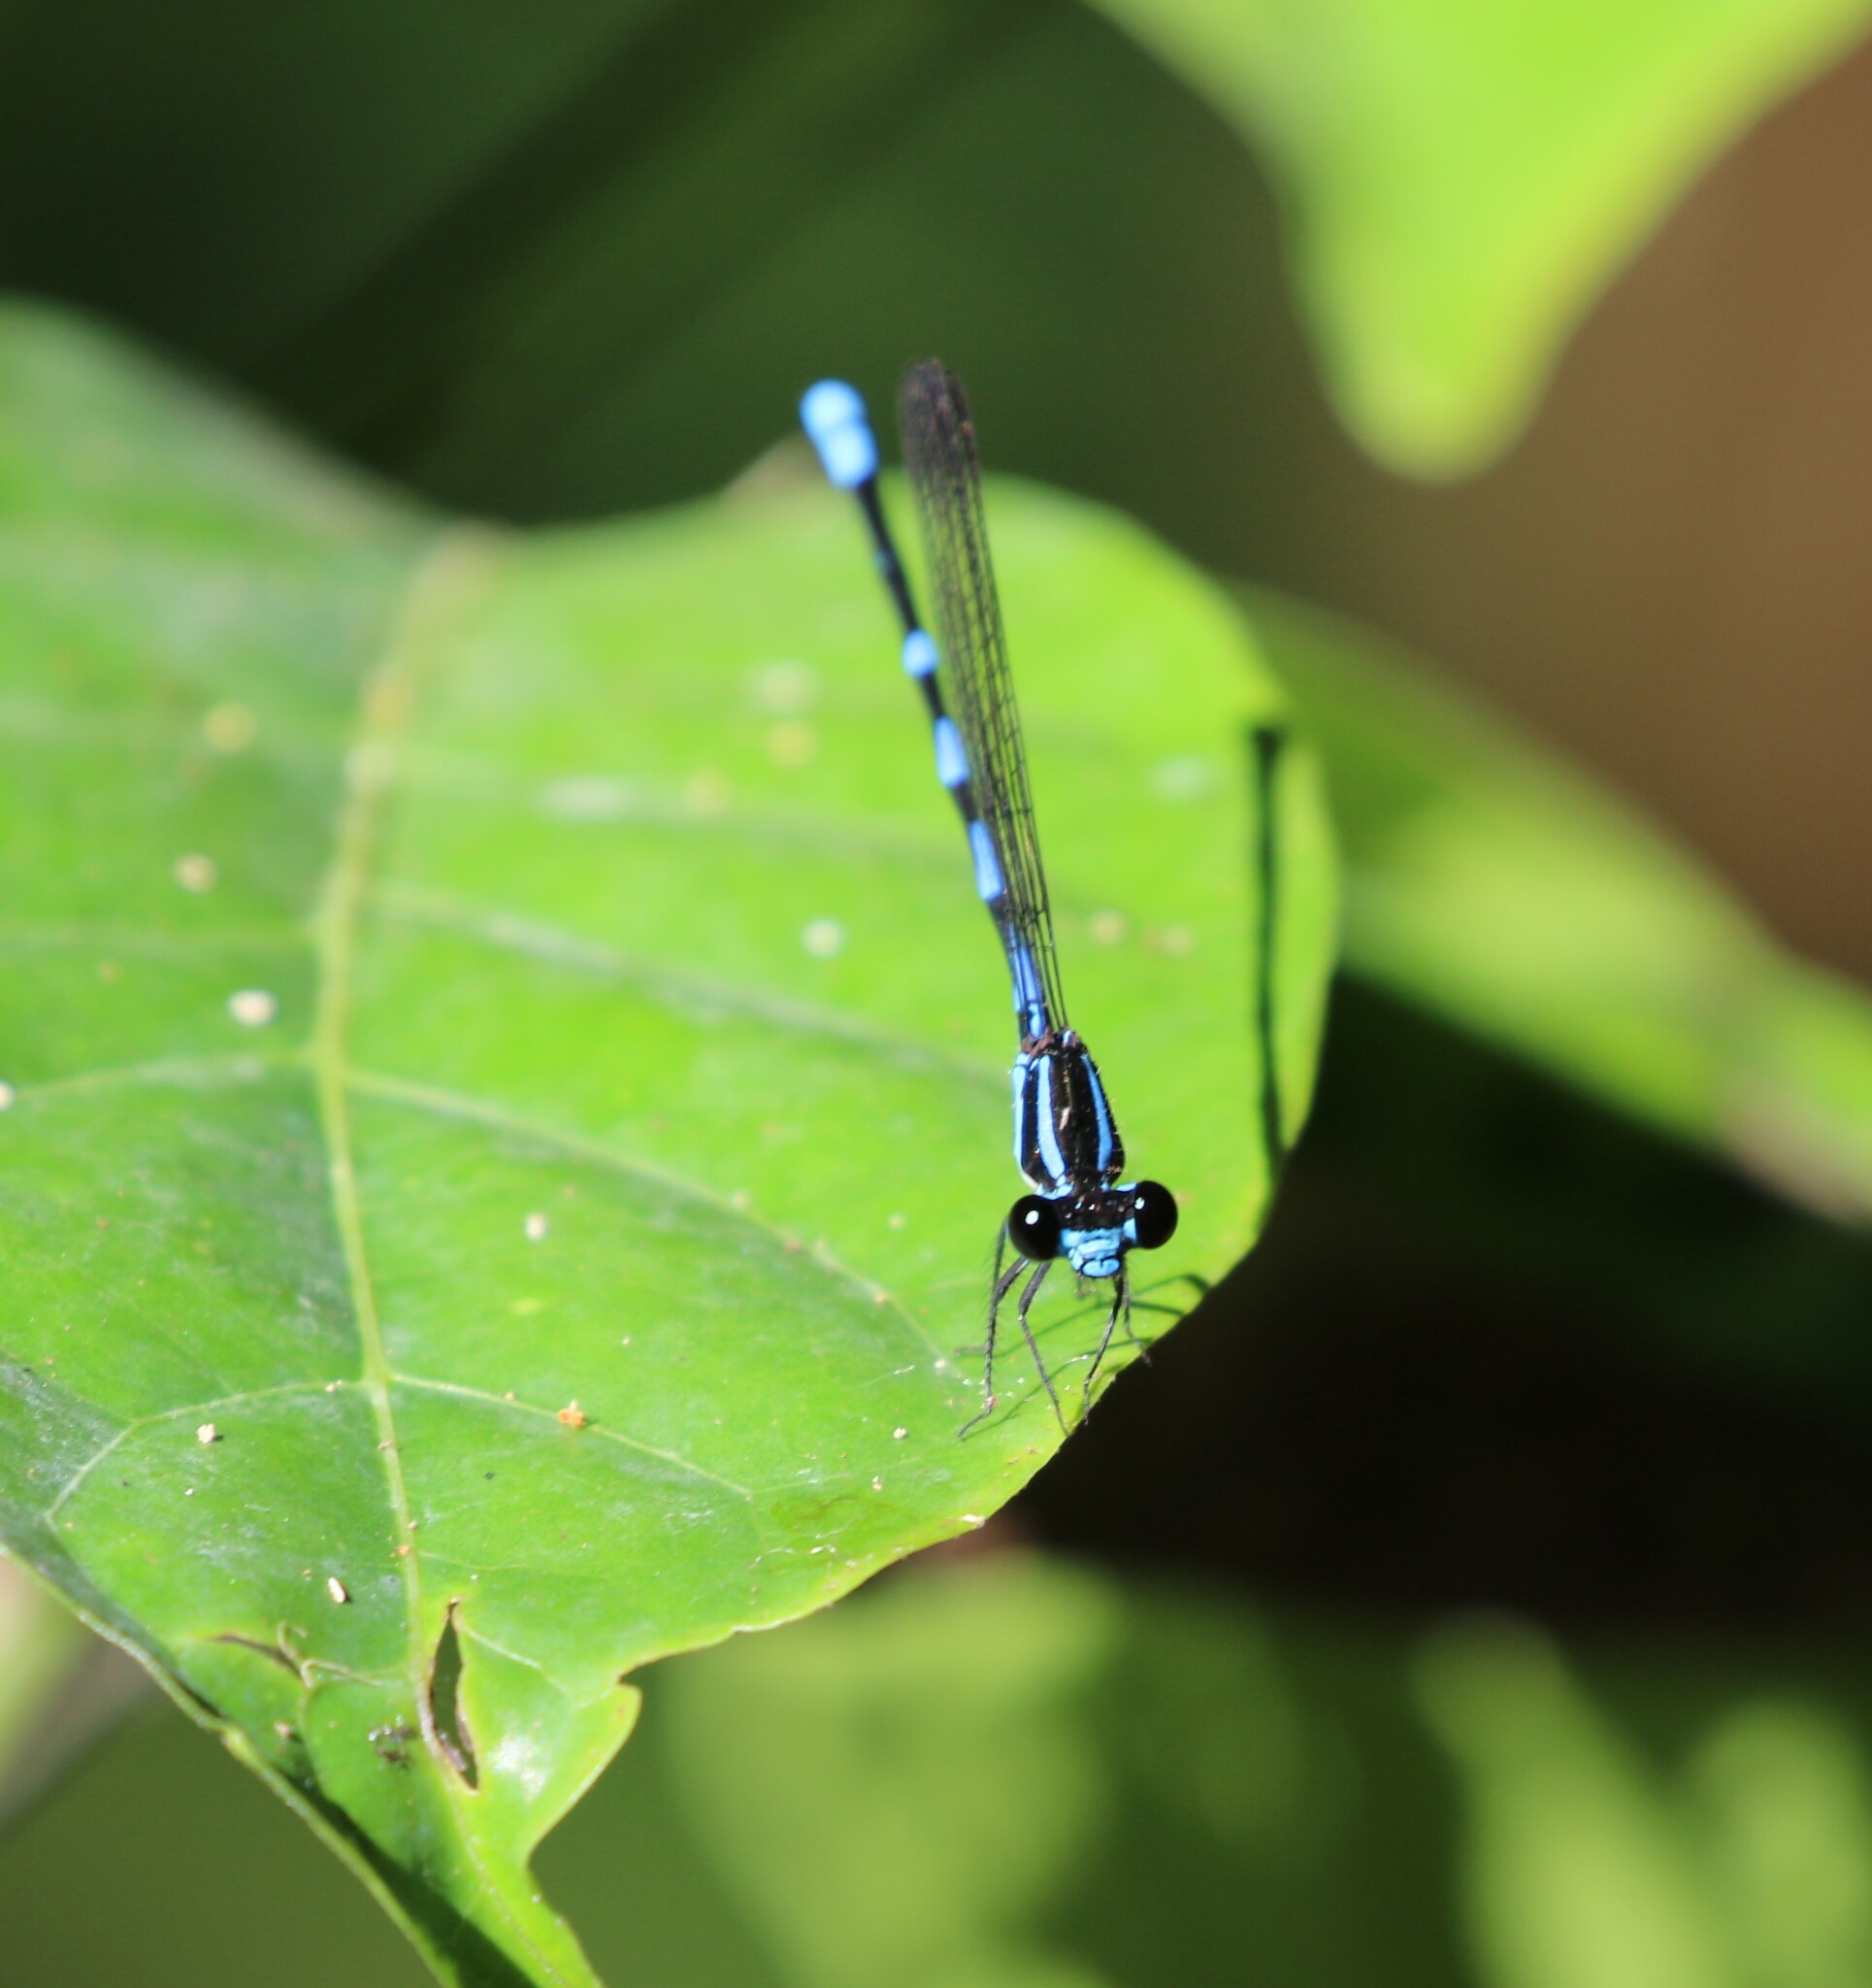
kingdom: Animalia
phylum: Arthropoda
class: Insecta
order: Odonata
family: Coenagrionidae
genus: Argia
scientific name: Argia adamsi
